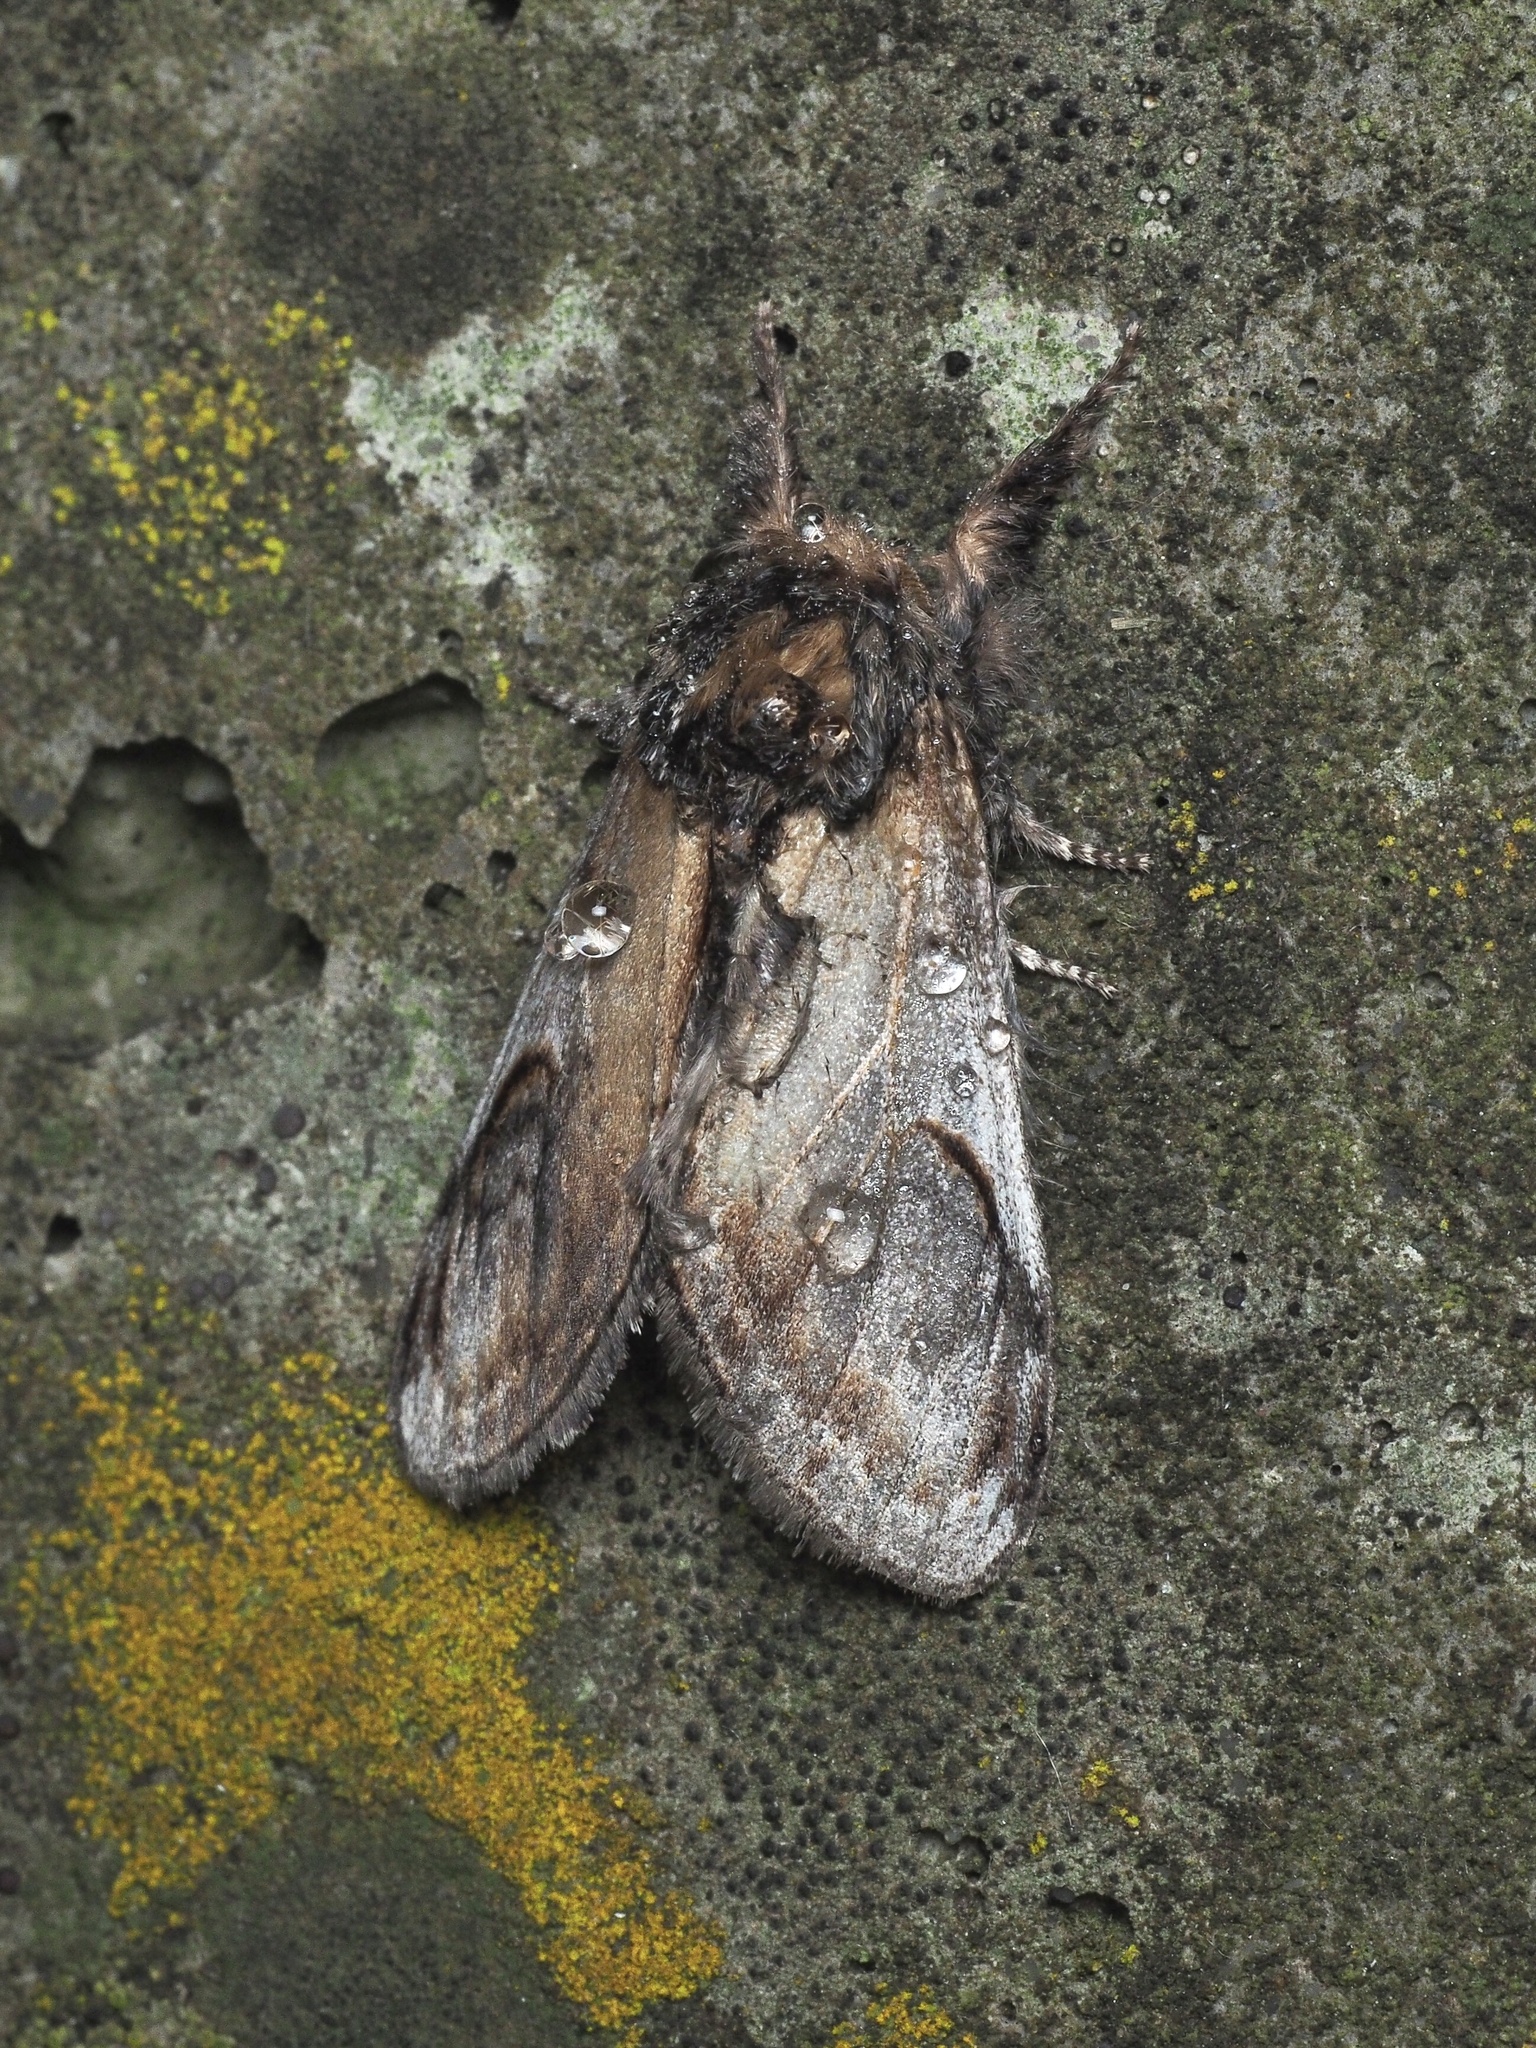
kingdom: Animalia
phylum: Arthropoda
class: Insecta
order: Lepidoptera
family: Notodontidae
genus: Notodonta
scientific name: Notodonta ziczac
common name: Pebble prominent
